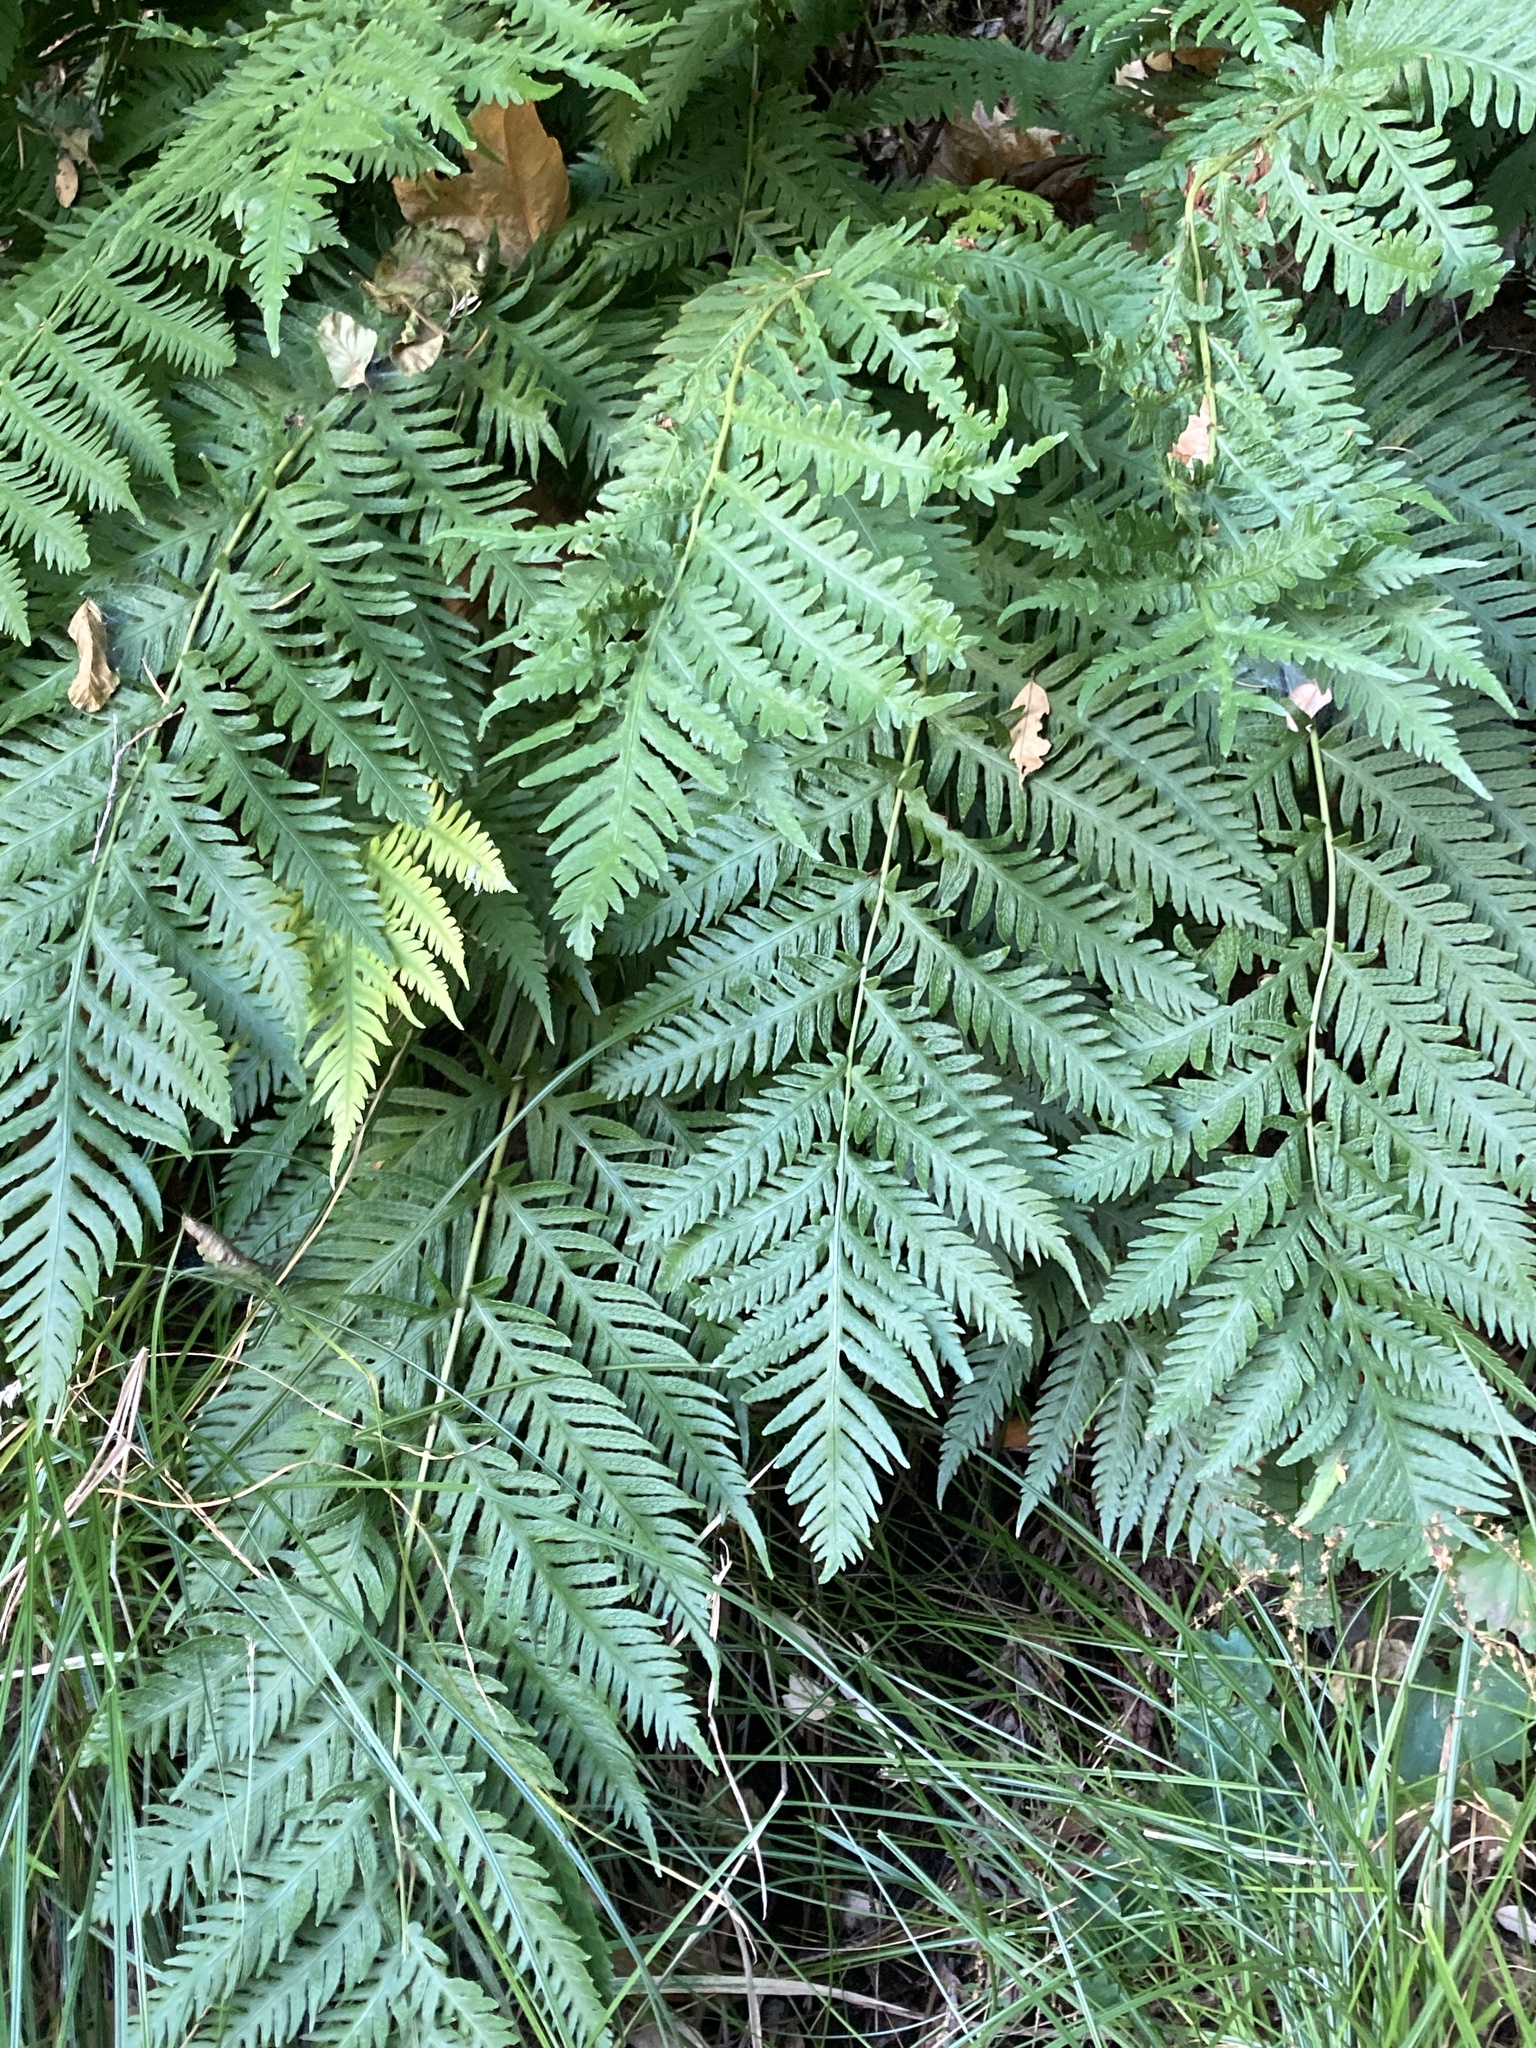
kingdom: Plantae
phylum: Tracheophyta
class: Polypodiopsida
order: Polypodiales
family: Blechnaceae
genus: Woodwardia
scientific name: Woodwardia fimbriata
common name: Giant chain fern
